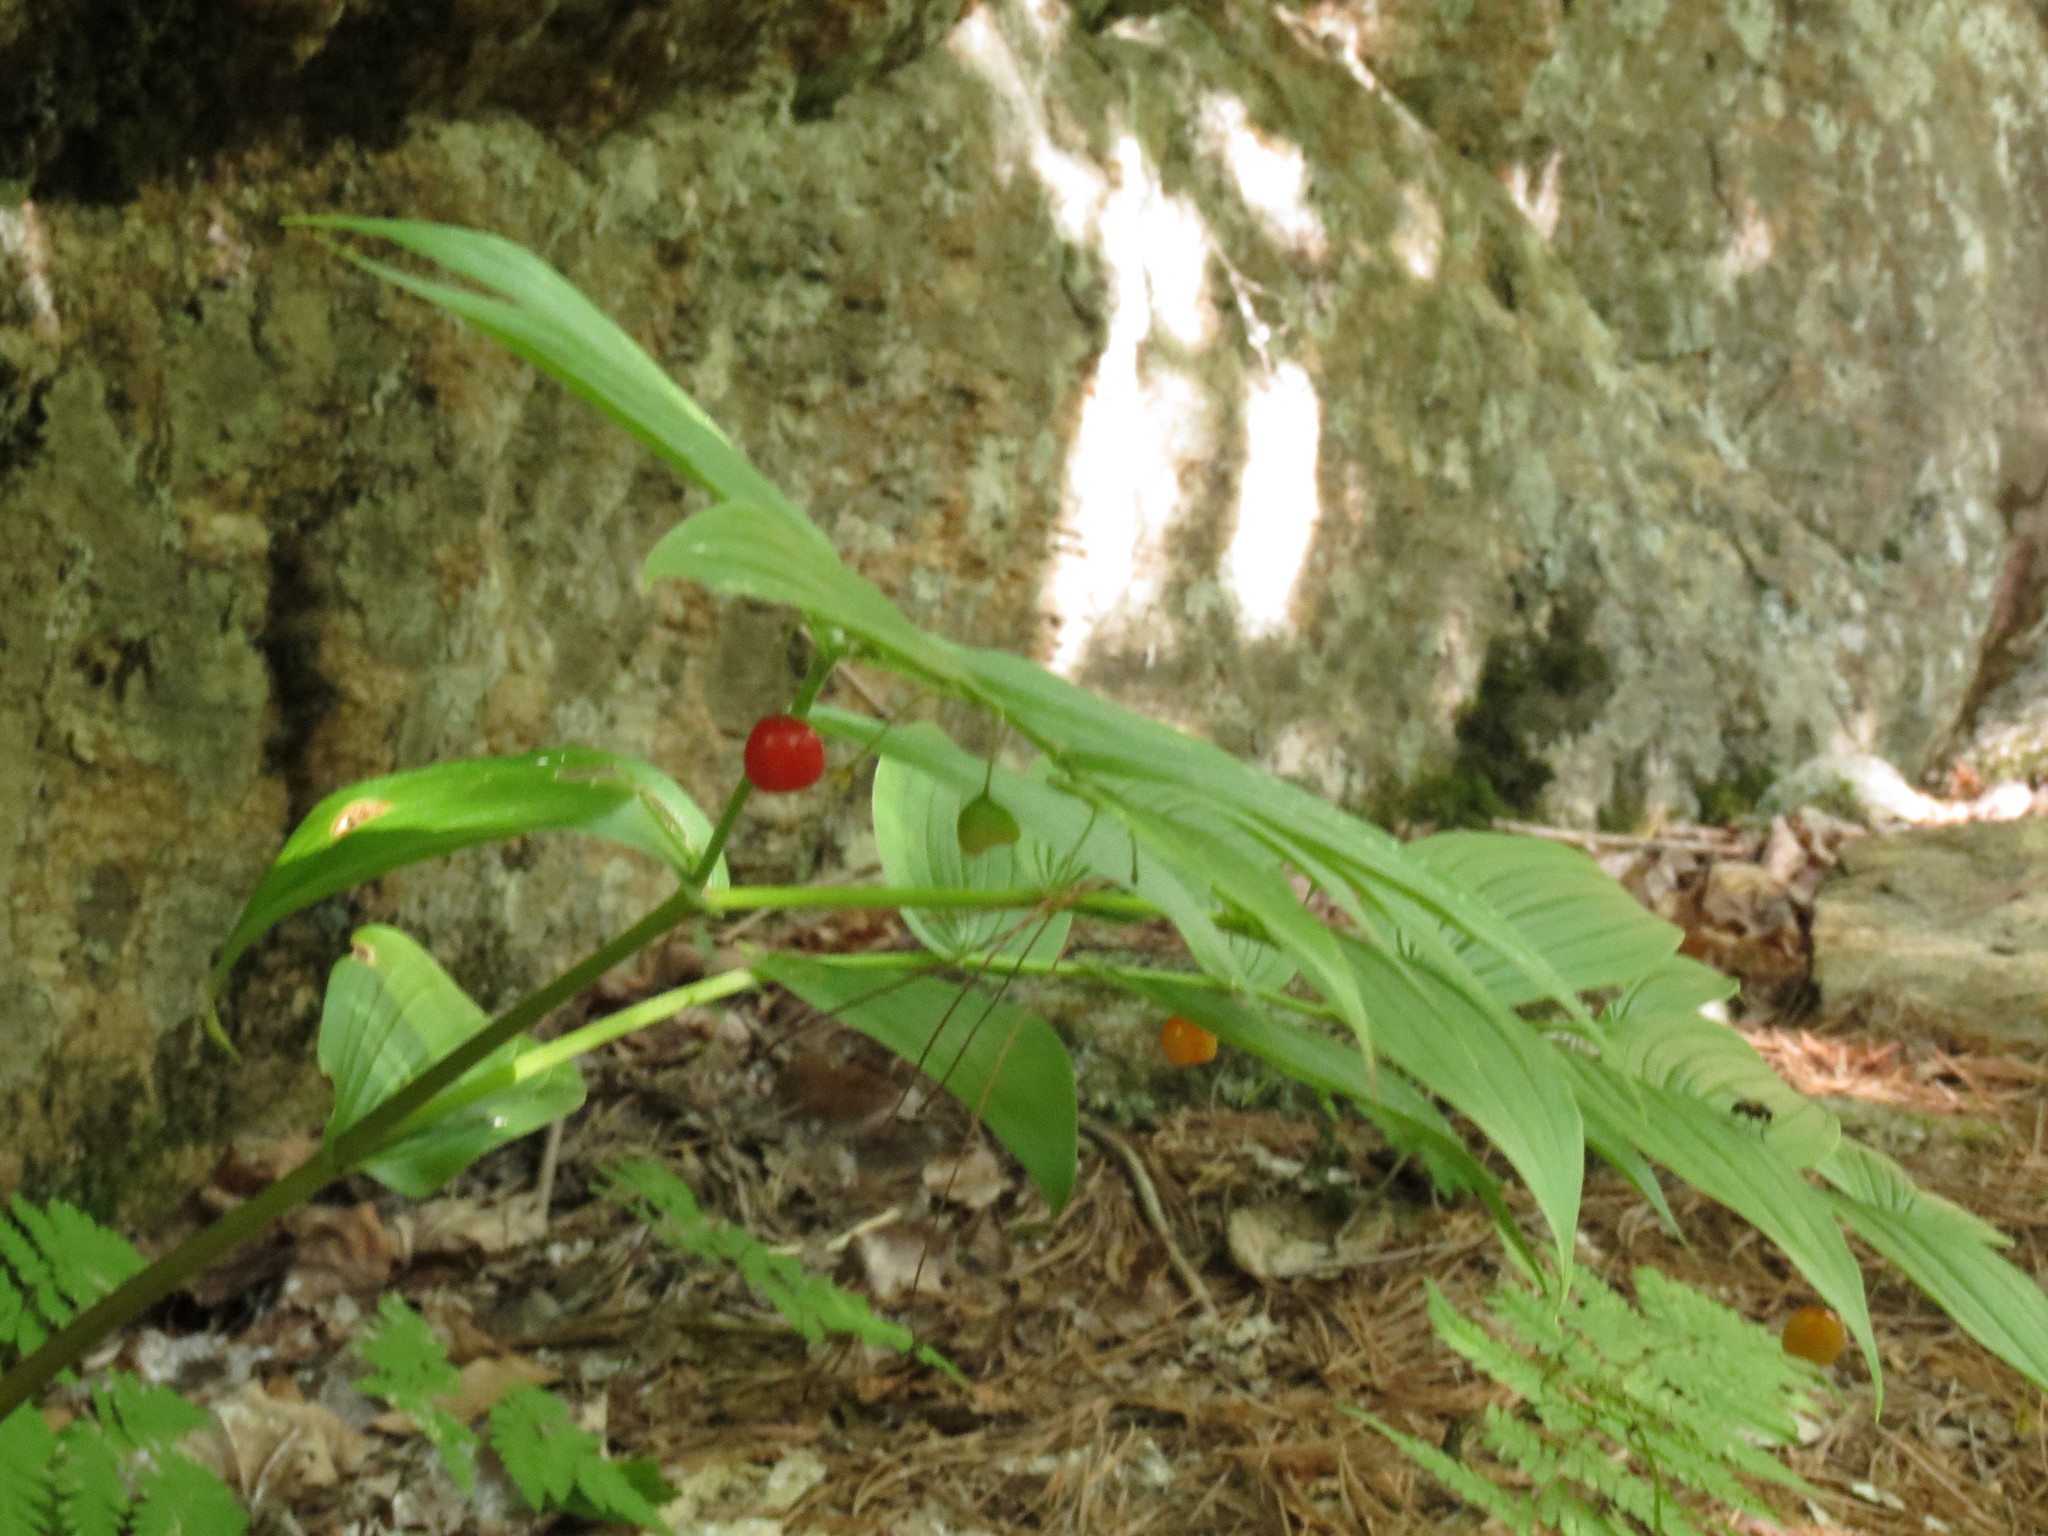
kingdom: Plantae
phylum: Tracheophyta
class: Liliopsida
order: Liliales
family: Liliaceae
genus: Streptopus
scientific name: Streptopus lanceolatus
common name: Rose mandarin
